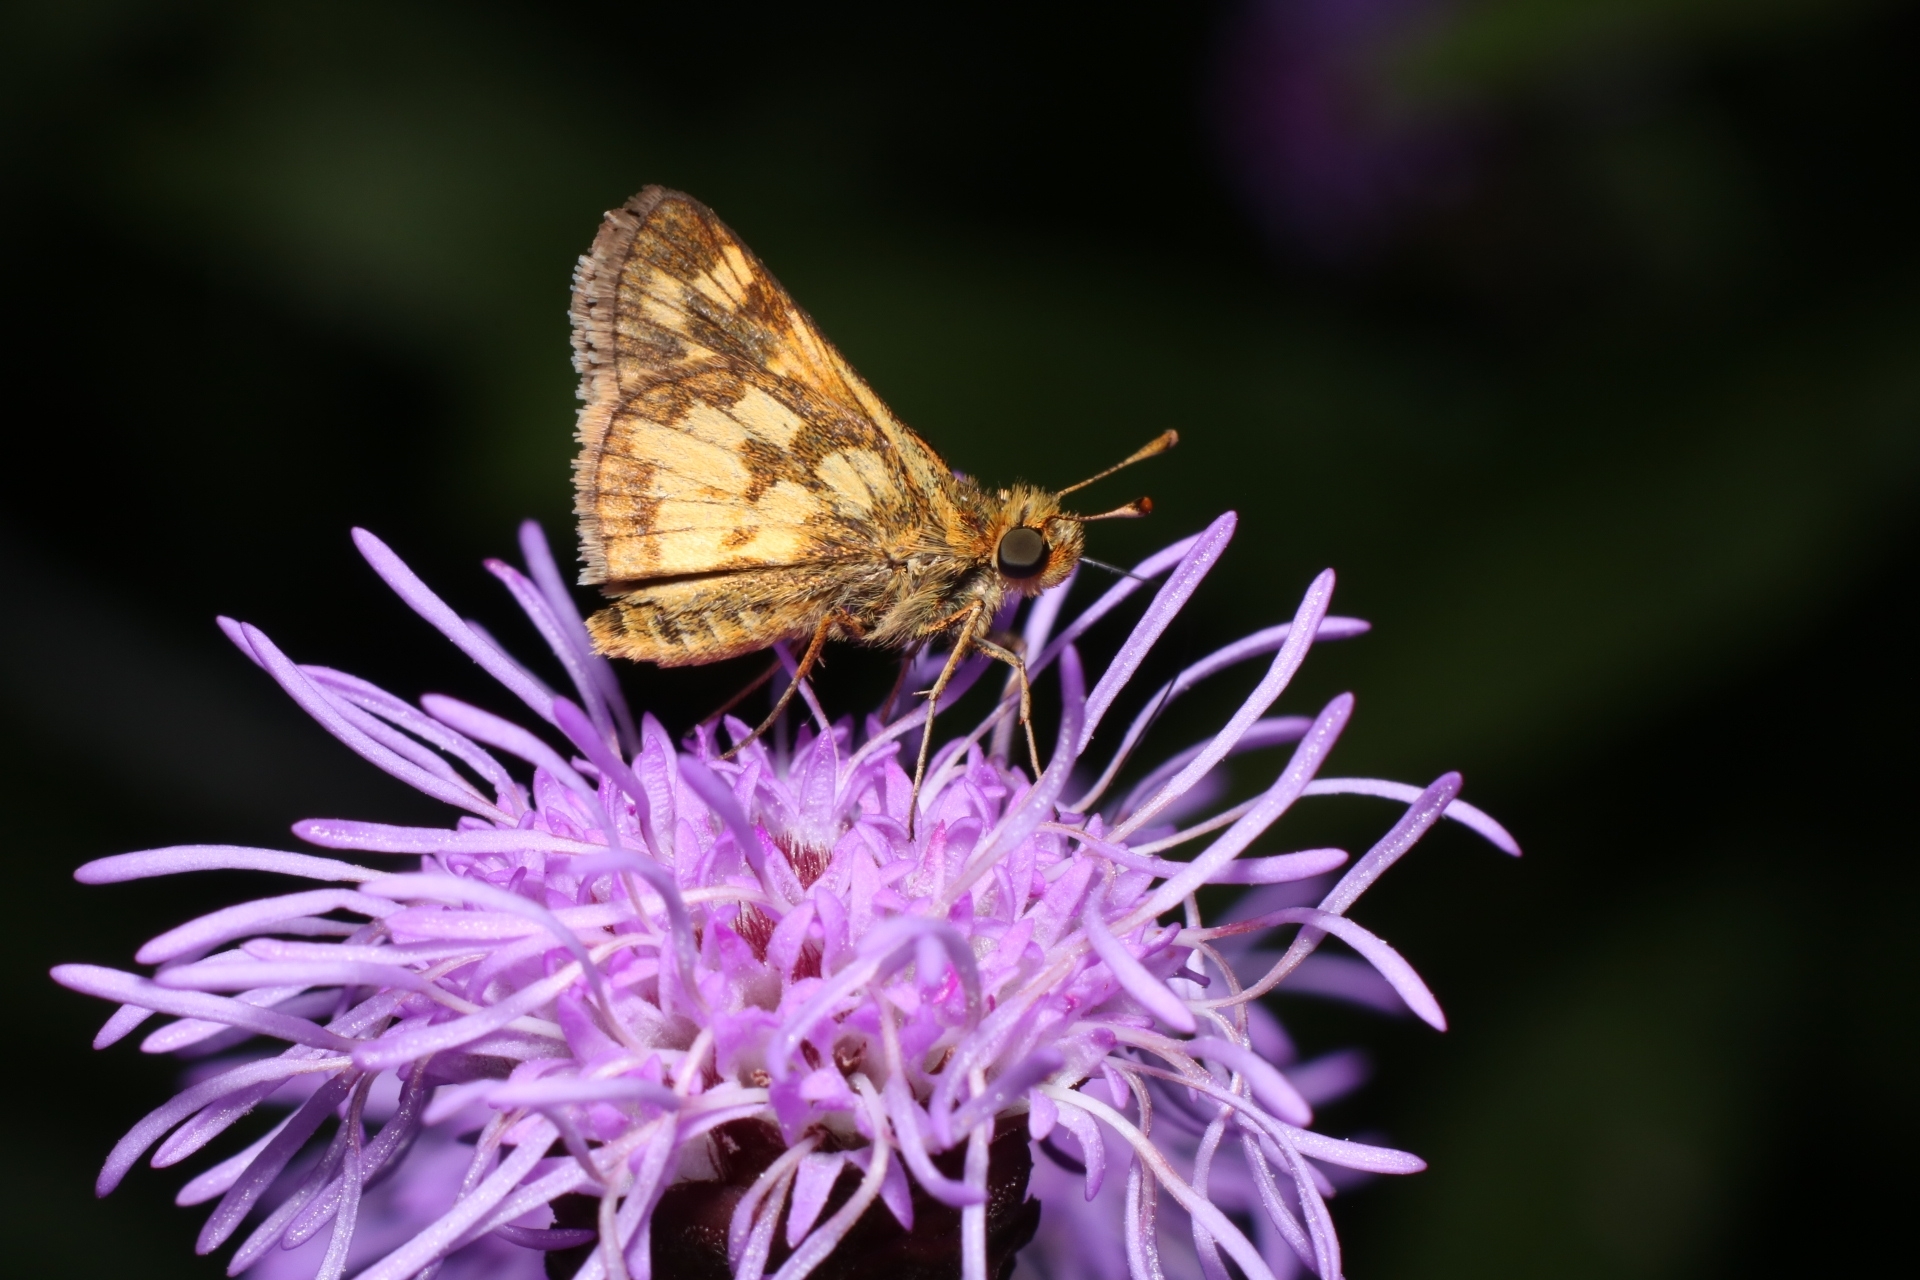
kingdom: Animalia
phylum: Arthropoda
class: Insecta
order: Lepidoptera
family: Hesperiidae
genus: Polites
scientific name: Polites coras
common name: Peck's skipper
